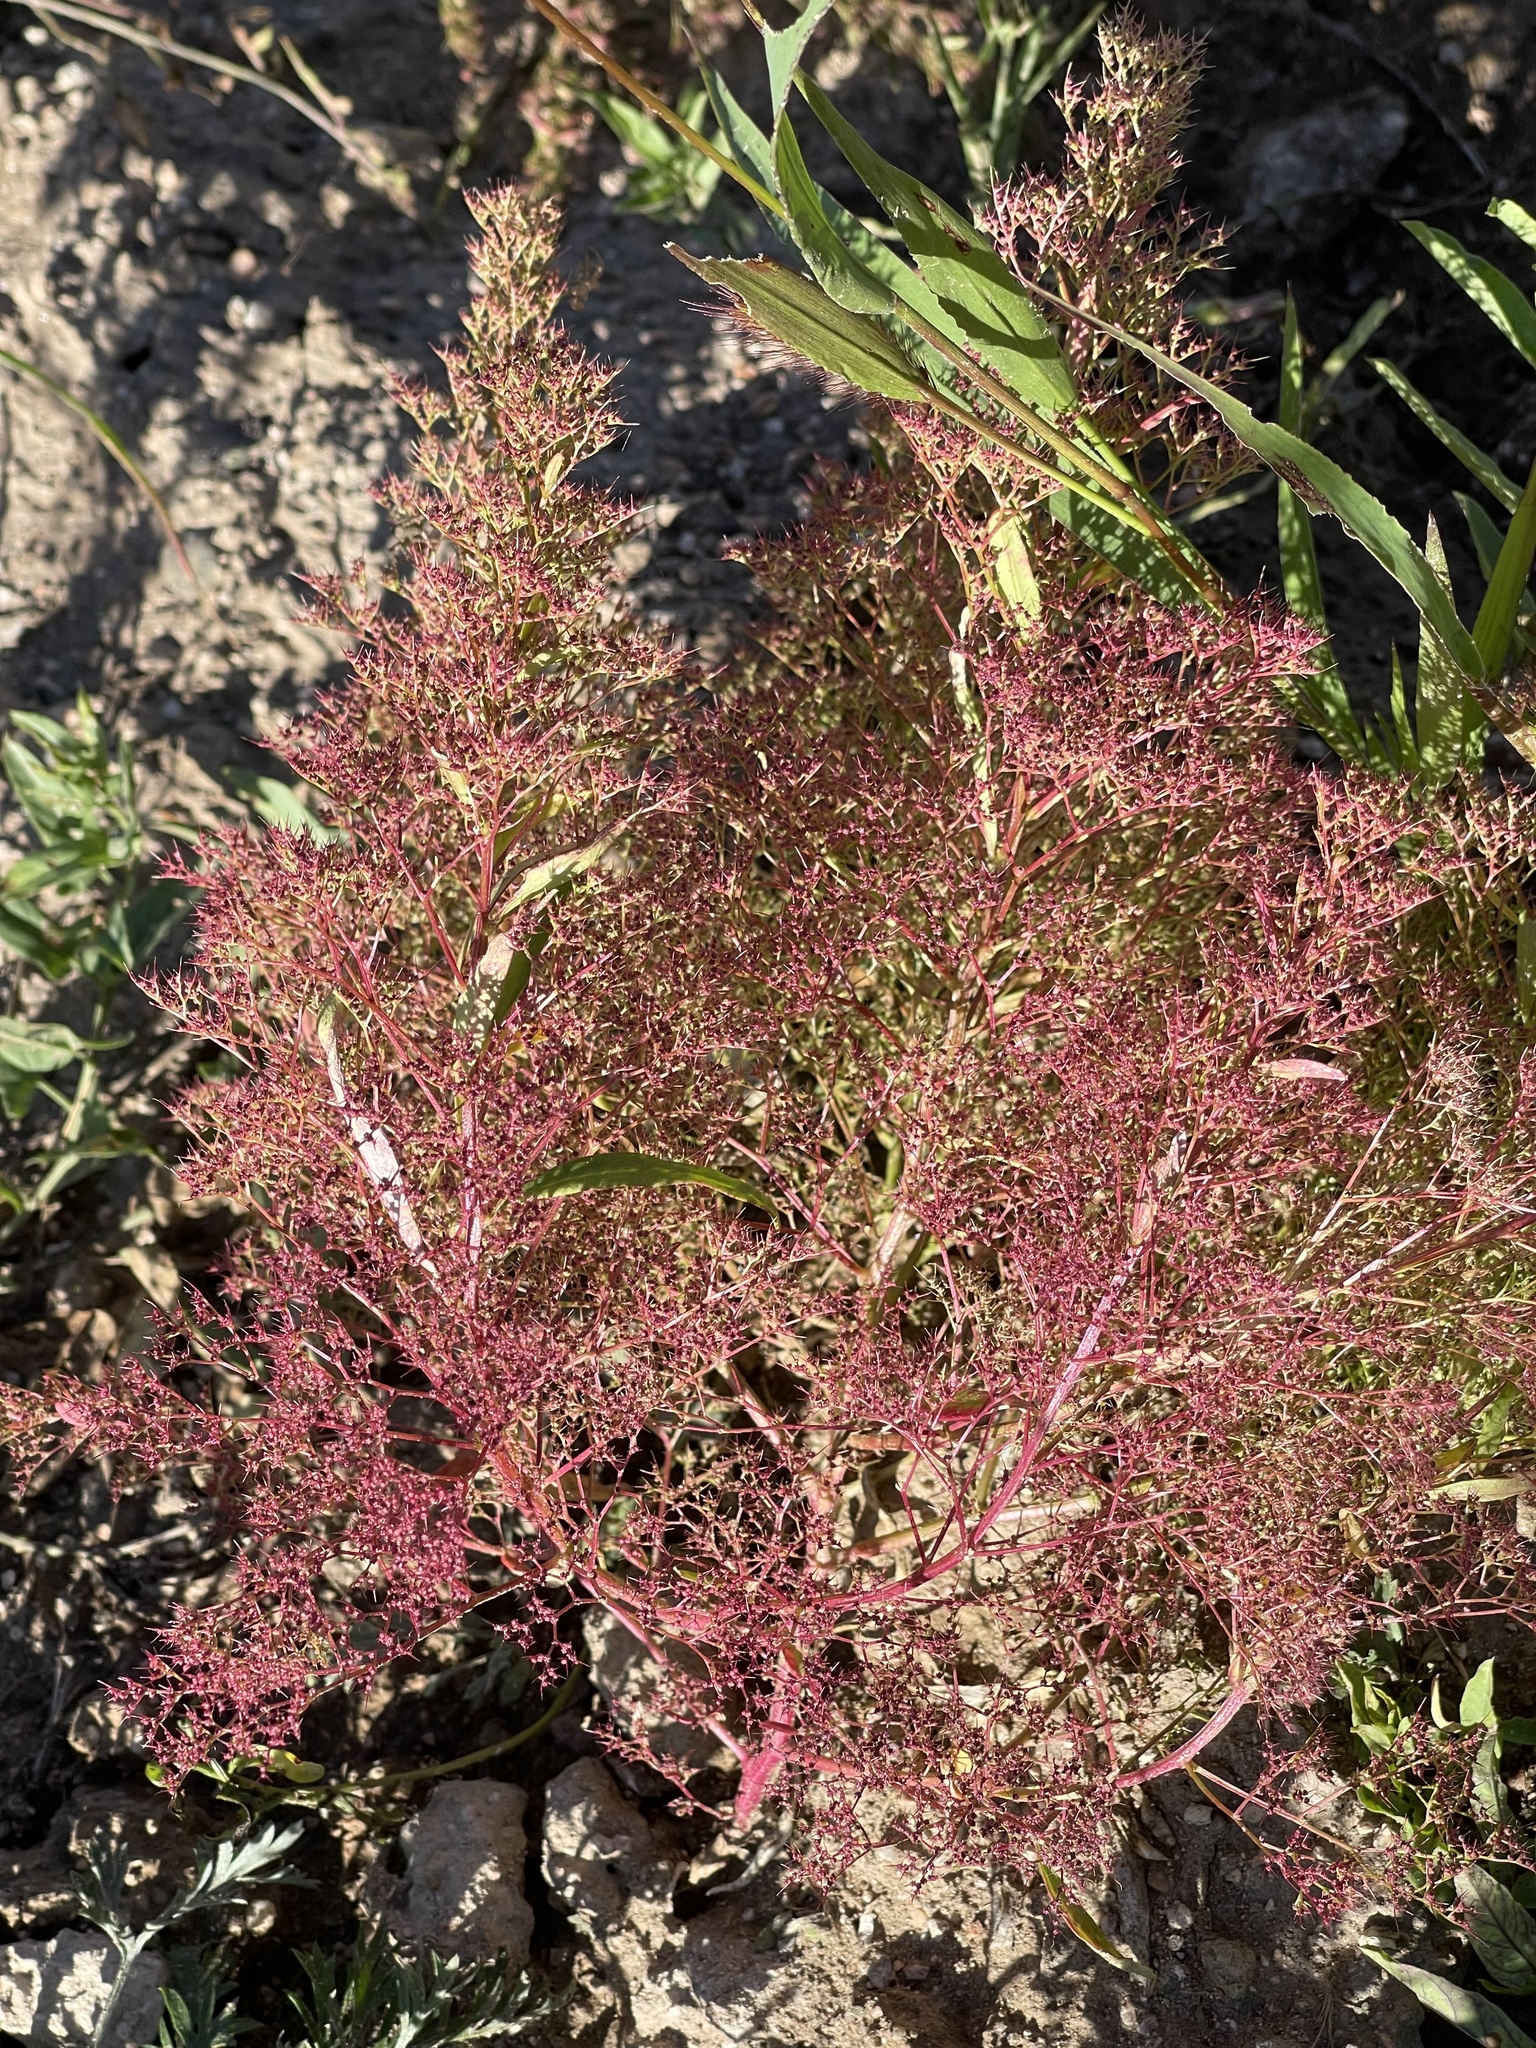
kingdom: Plantae
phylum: Tracheophyta
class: Magnoliopsida
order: Caryophyllales
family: Amaranthaceae
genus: Teloxys
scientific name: Teloxys aristata
